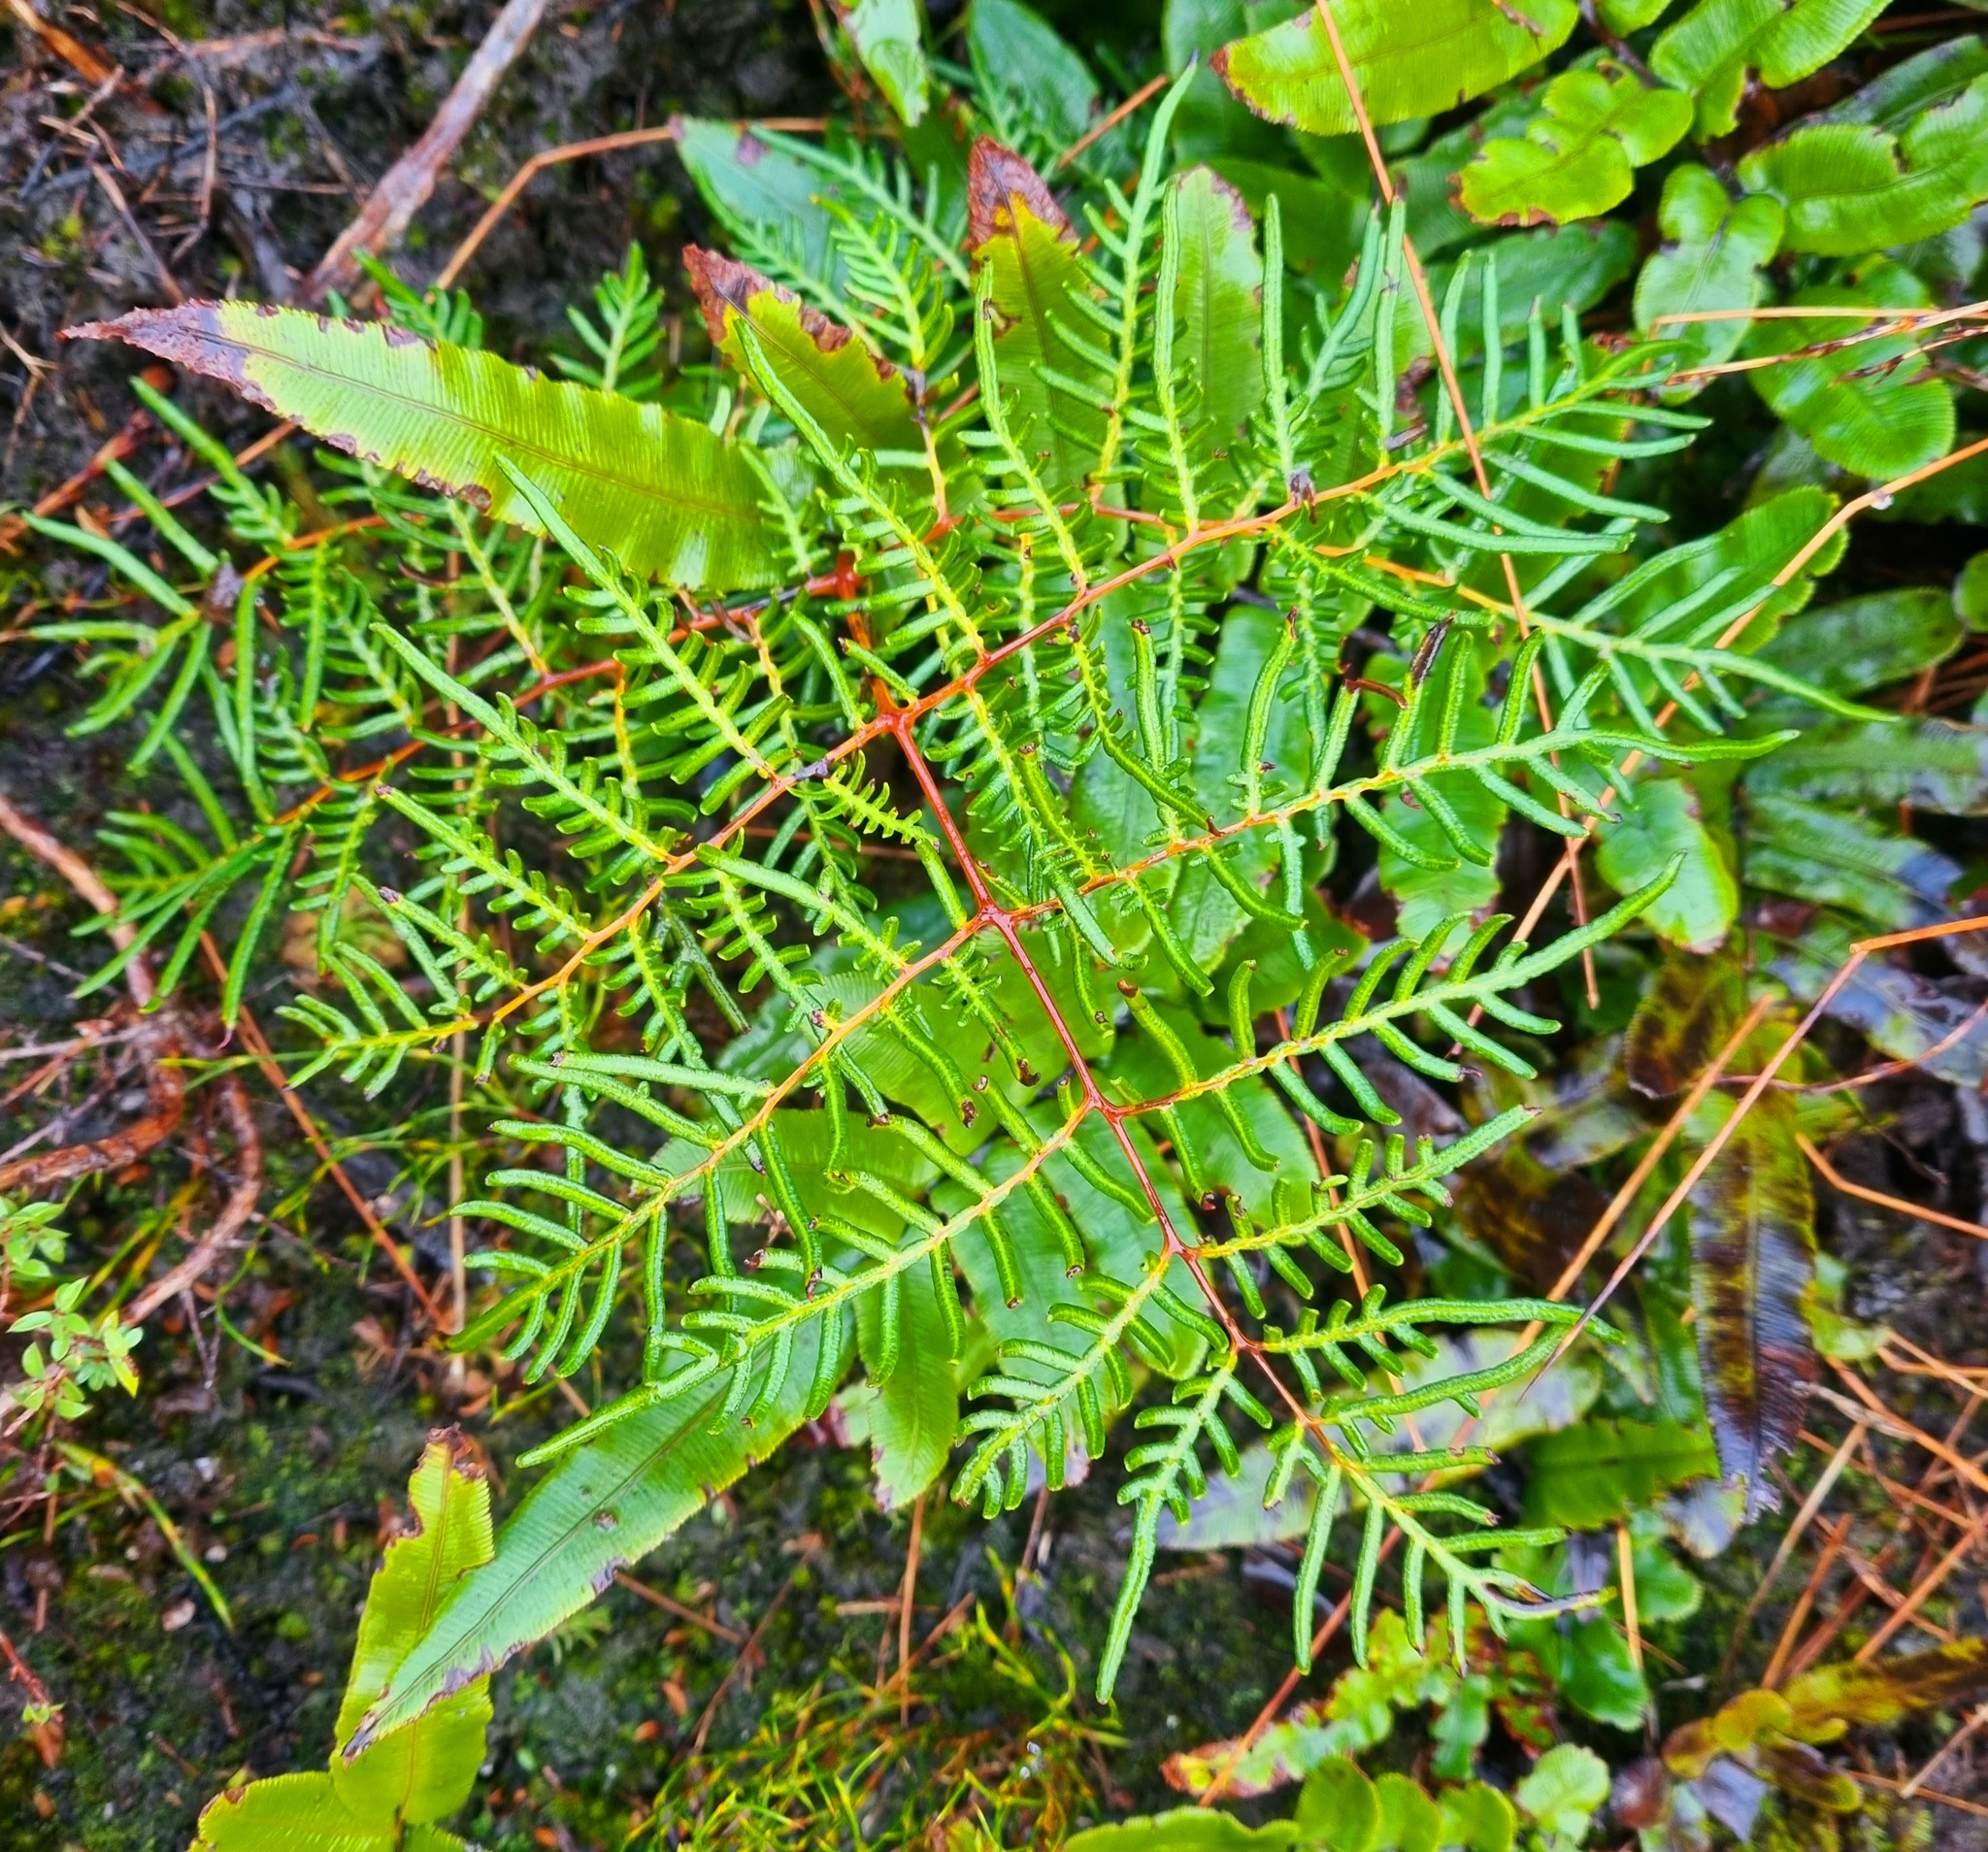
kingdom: Plantae
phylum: Tracheophyta
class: Polypodiopsida
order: Polypodiales
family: Dennstaedtiaceae
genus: Pteridium
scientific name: Pteridium esculentum
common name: Bracken fern
